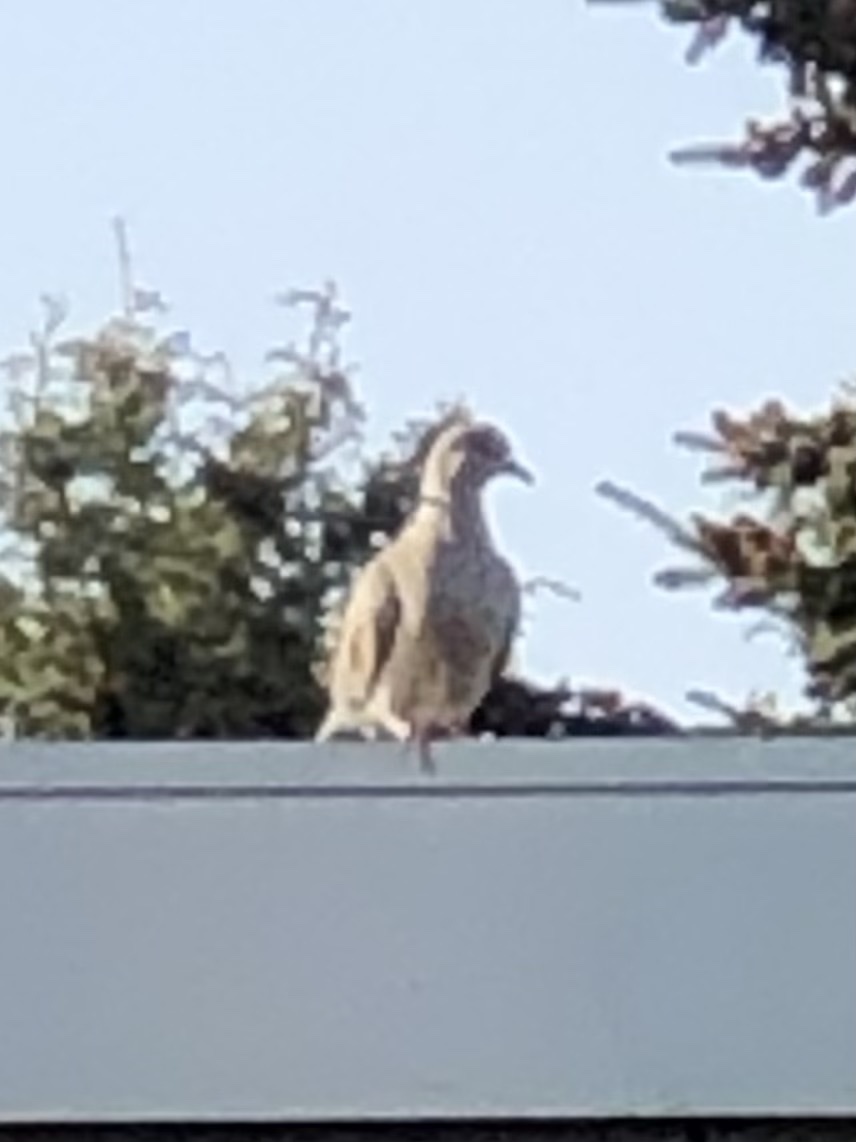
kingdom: Animalia
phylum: Chordata
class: Aves
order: Columbiformes
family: Columbidae
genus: Streptopelia
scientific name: Streptopelia decaocto
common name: Eurasian collared dove
